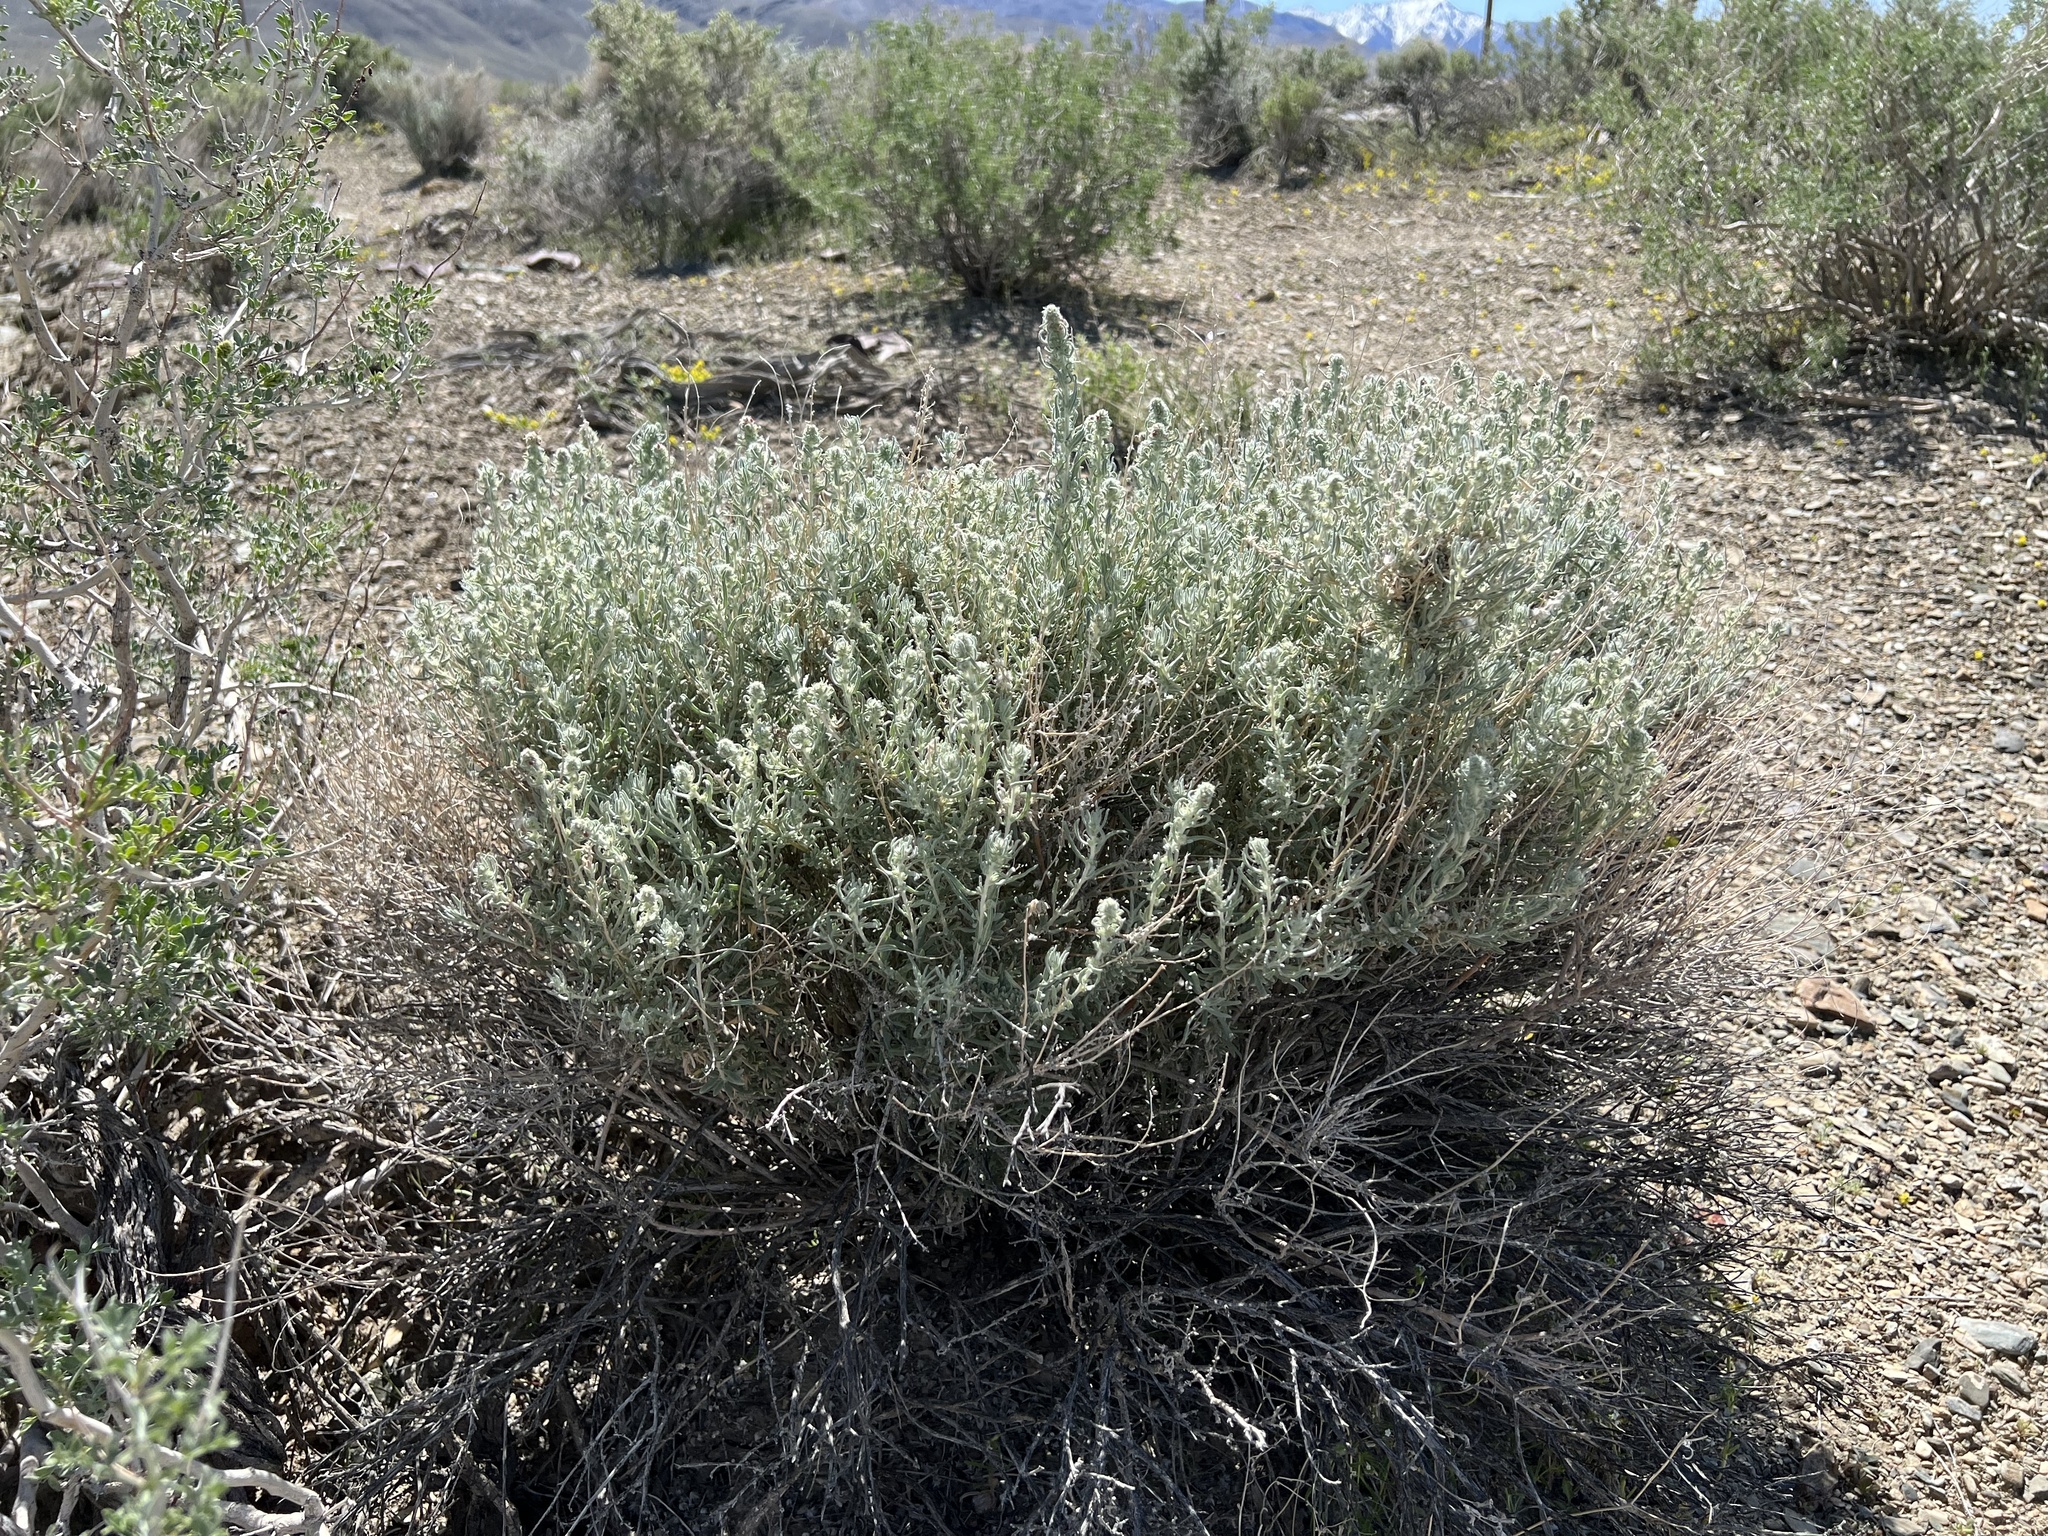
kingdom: Plantae
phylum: Tracheophyta
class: Magnoliopsida
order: Caryophyllales
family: Amaranthaceae
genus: Krascheninnikovia
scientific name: Krascheninnikovia lanata
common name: Winterfat
